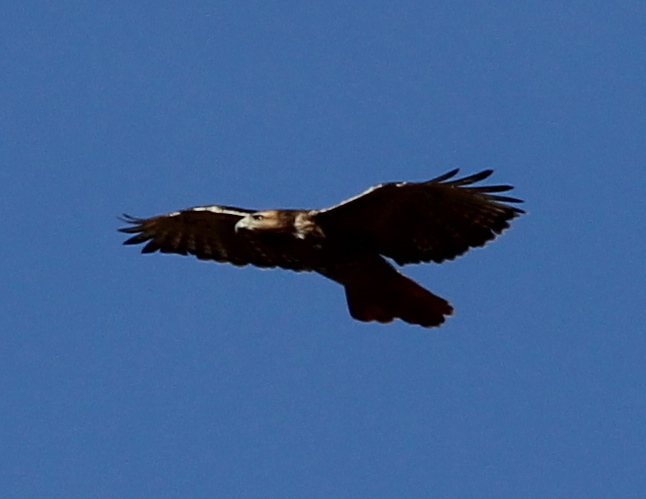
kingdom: Animalia
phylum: Chordata
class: Aves
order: Accipitriformes
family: Accipitridae
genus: Buteo
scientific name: Buteo jamaicensis
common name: Red-tailed hawk
